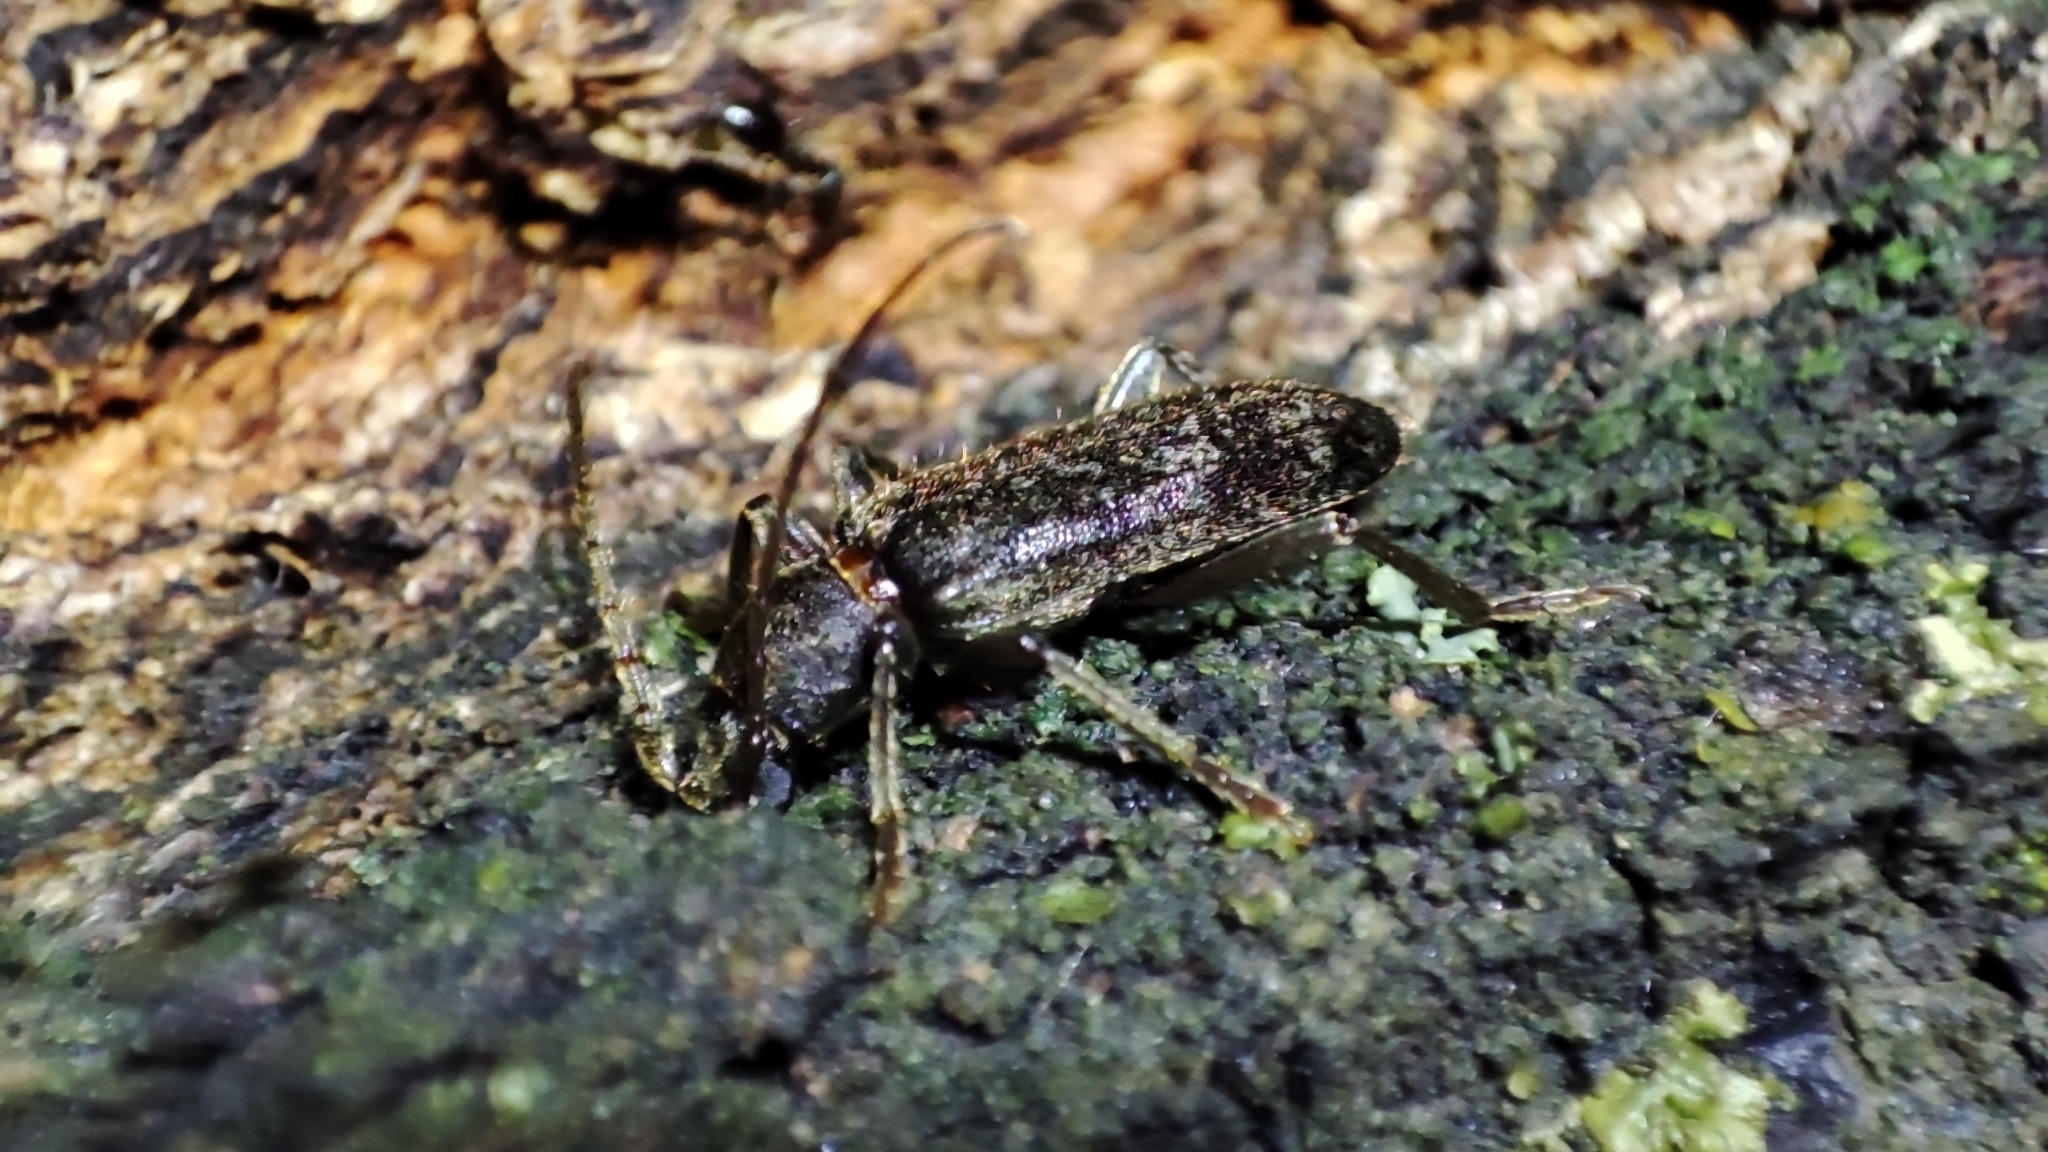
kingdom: Animalia
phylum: Arthropoda
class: Insecta
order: Coleoptera
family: Cerambycidae
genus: Trichoferus
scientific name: Trichoferus campestris
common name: Velvet long horned beetle
